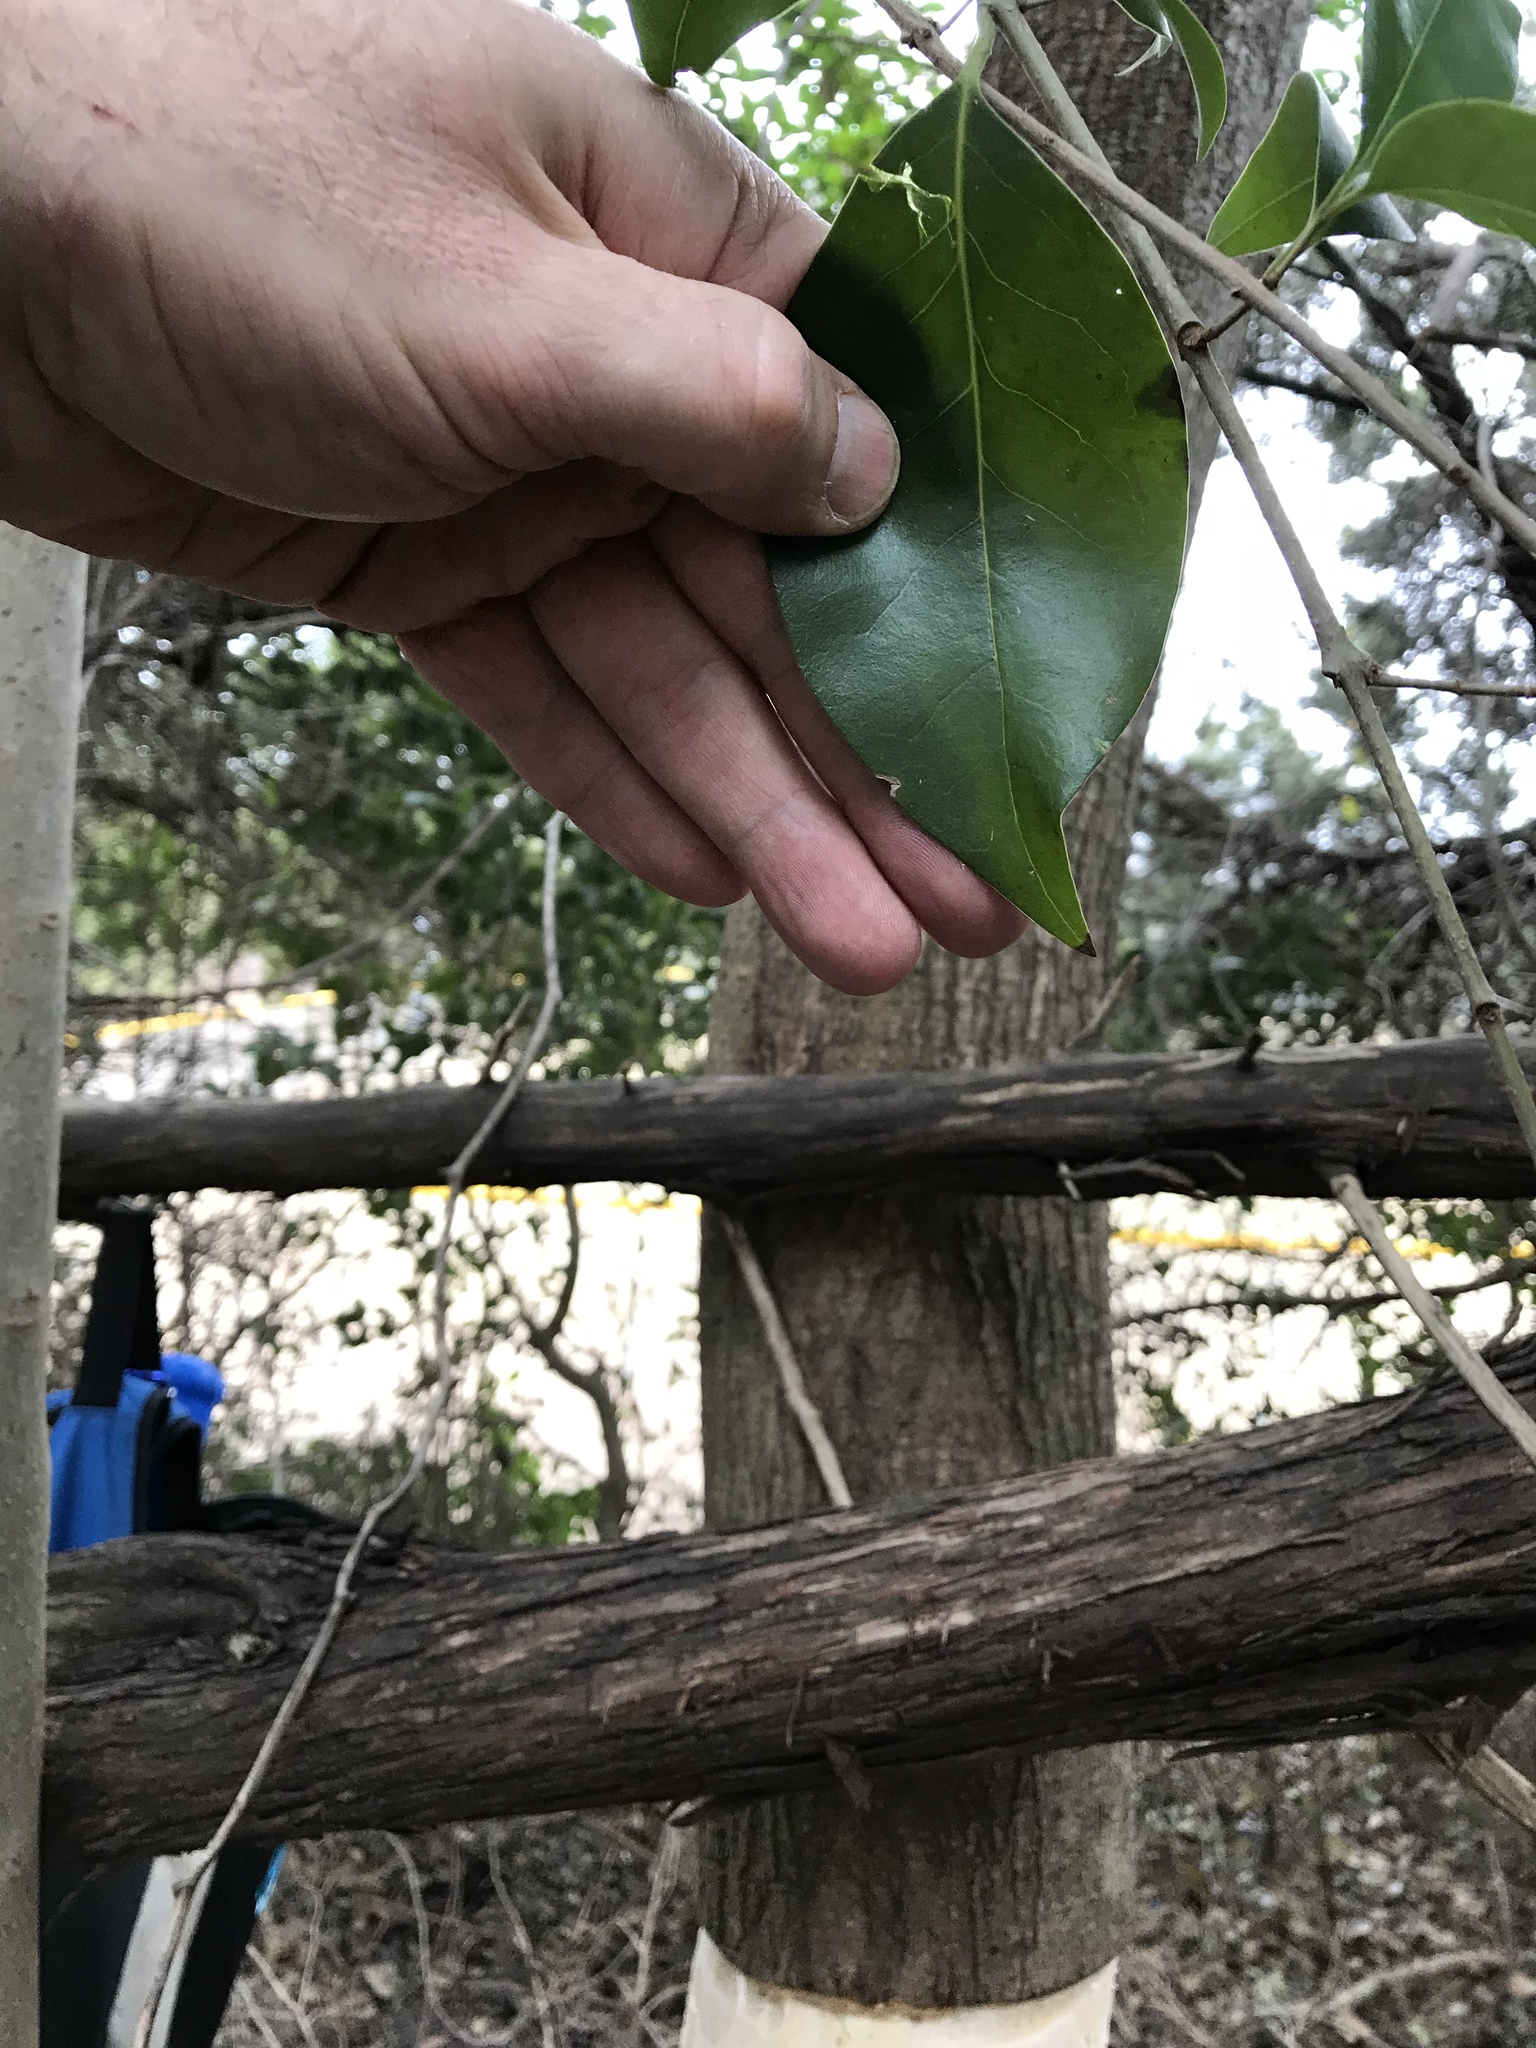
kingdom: Plantae
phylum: Tracheophyta
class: Magnoliopsida
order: Lamiales
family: Oleaceae
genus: Ligustrum
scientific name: Ligustrum lucidum
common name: Glossy privet
